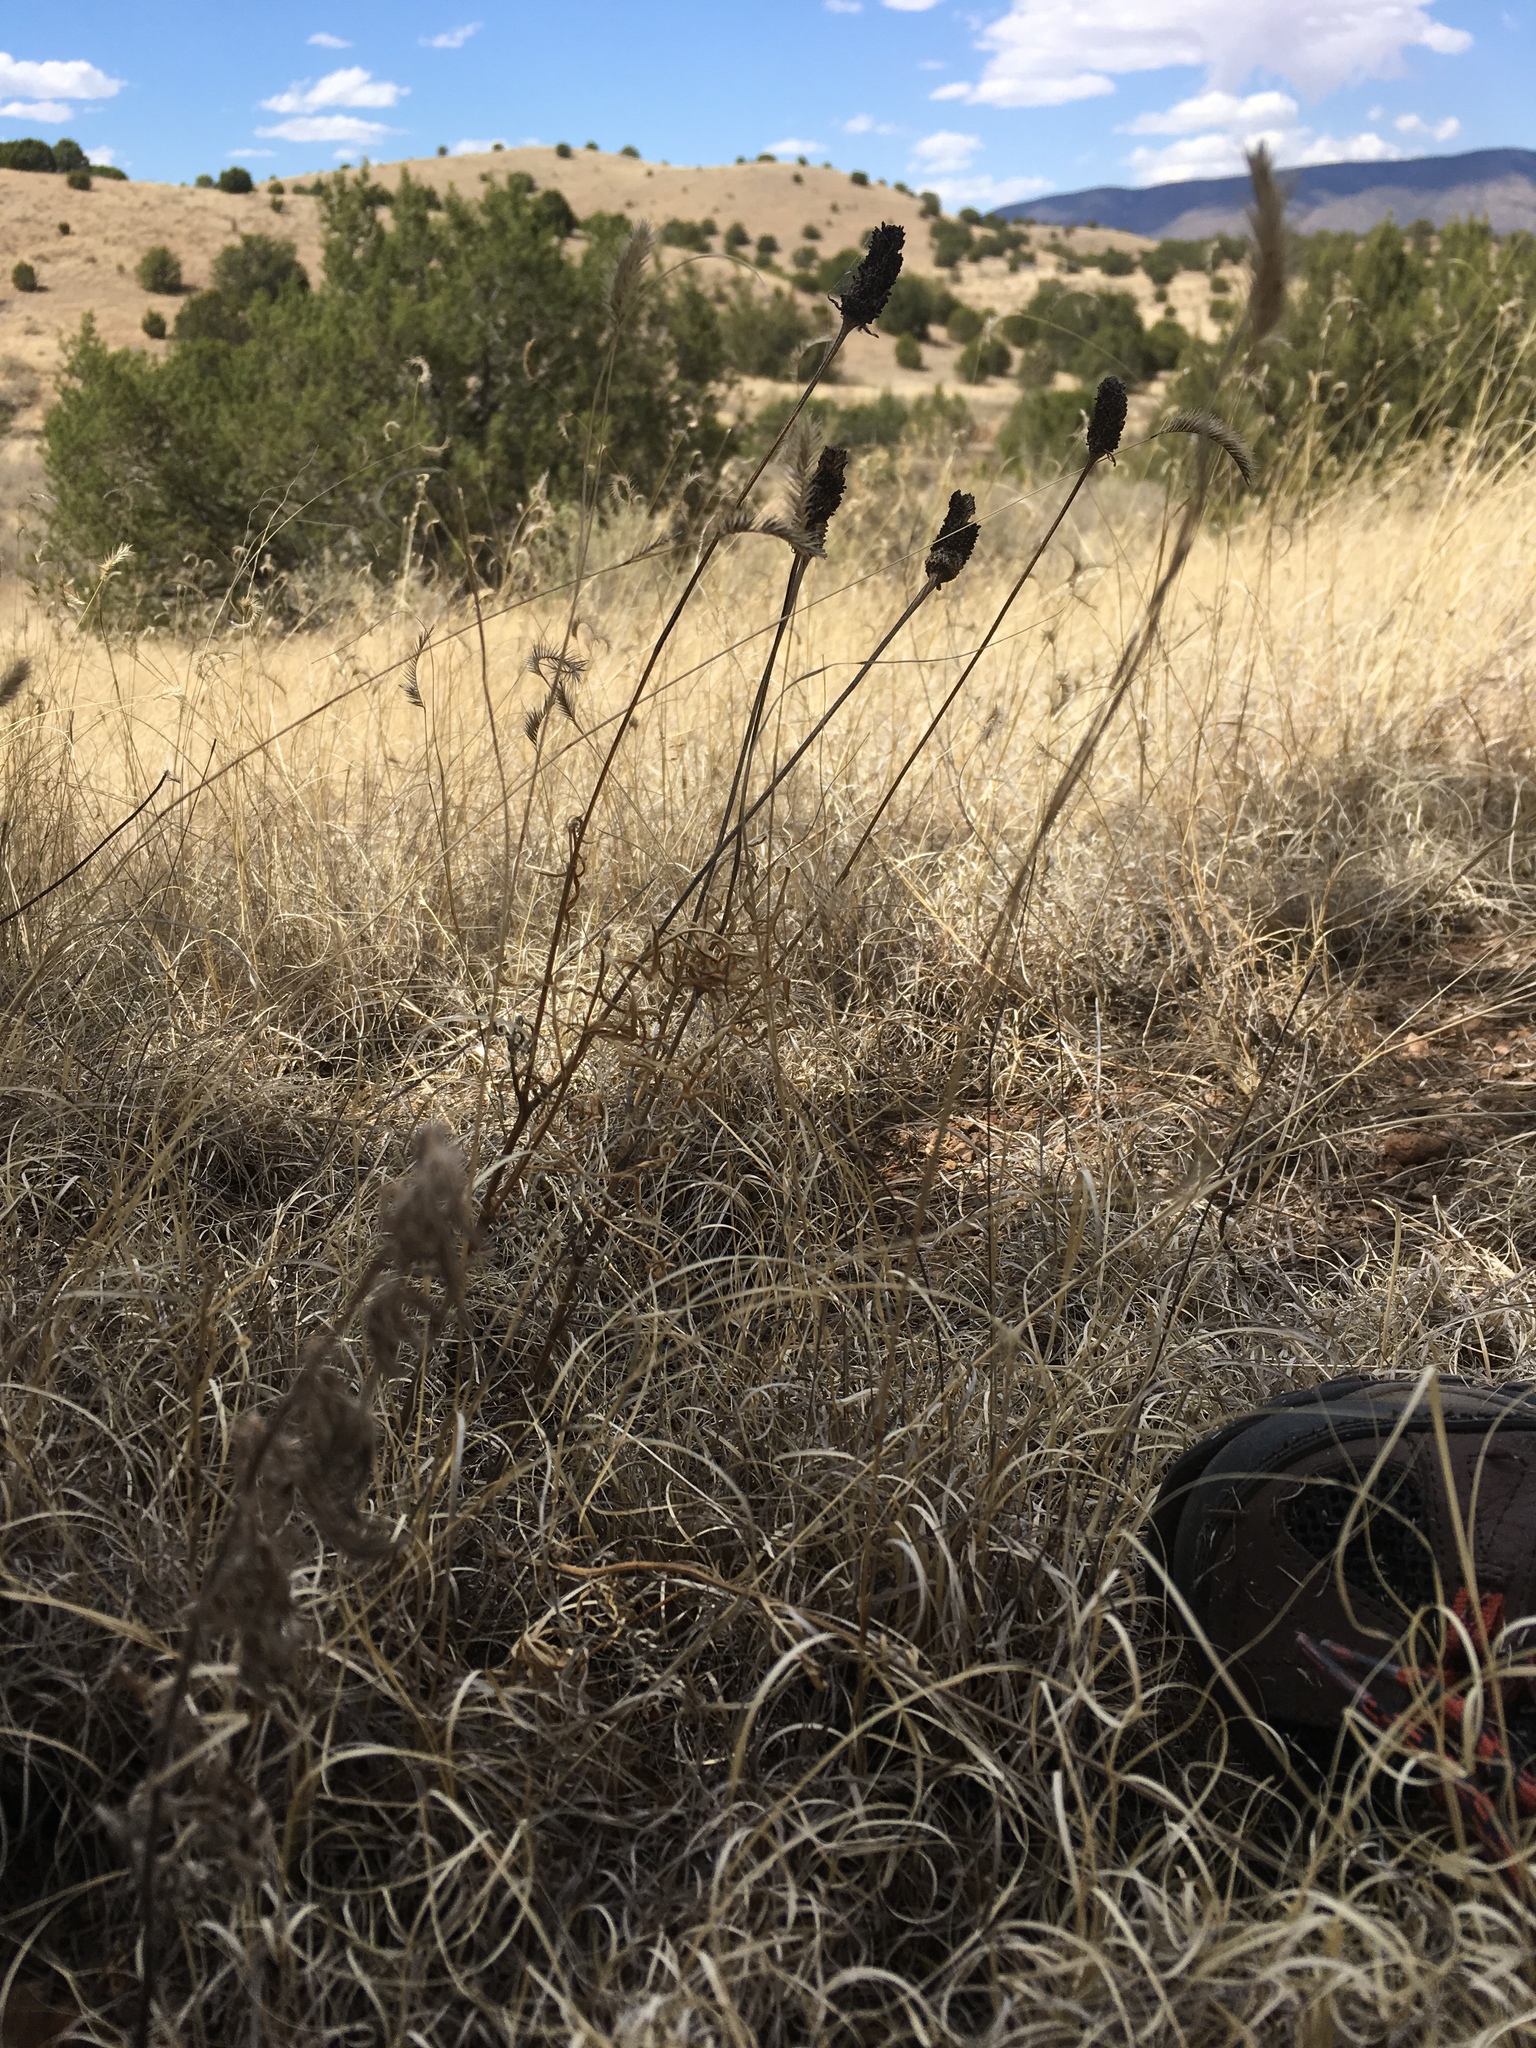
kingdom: Plantae
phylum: Tracheophyta
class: Magnoliopsida
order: Asterales
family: Asteraceae
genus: Ratibida
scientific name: Ratibida columnifera
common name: Prairie coneflower
